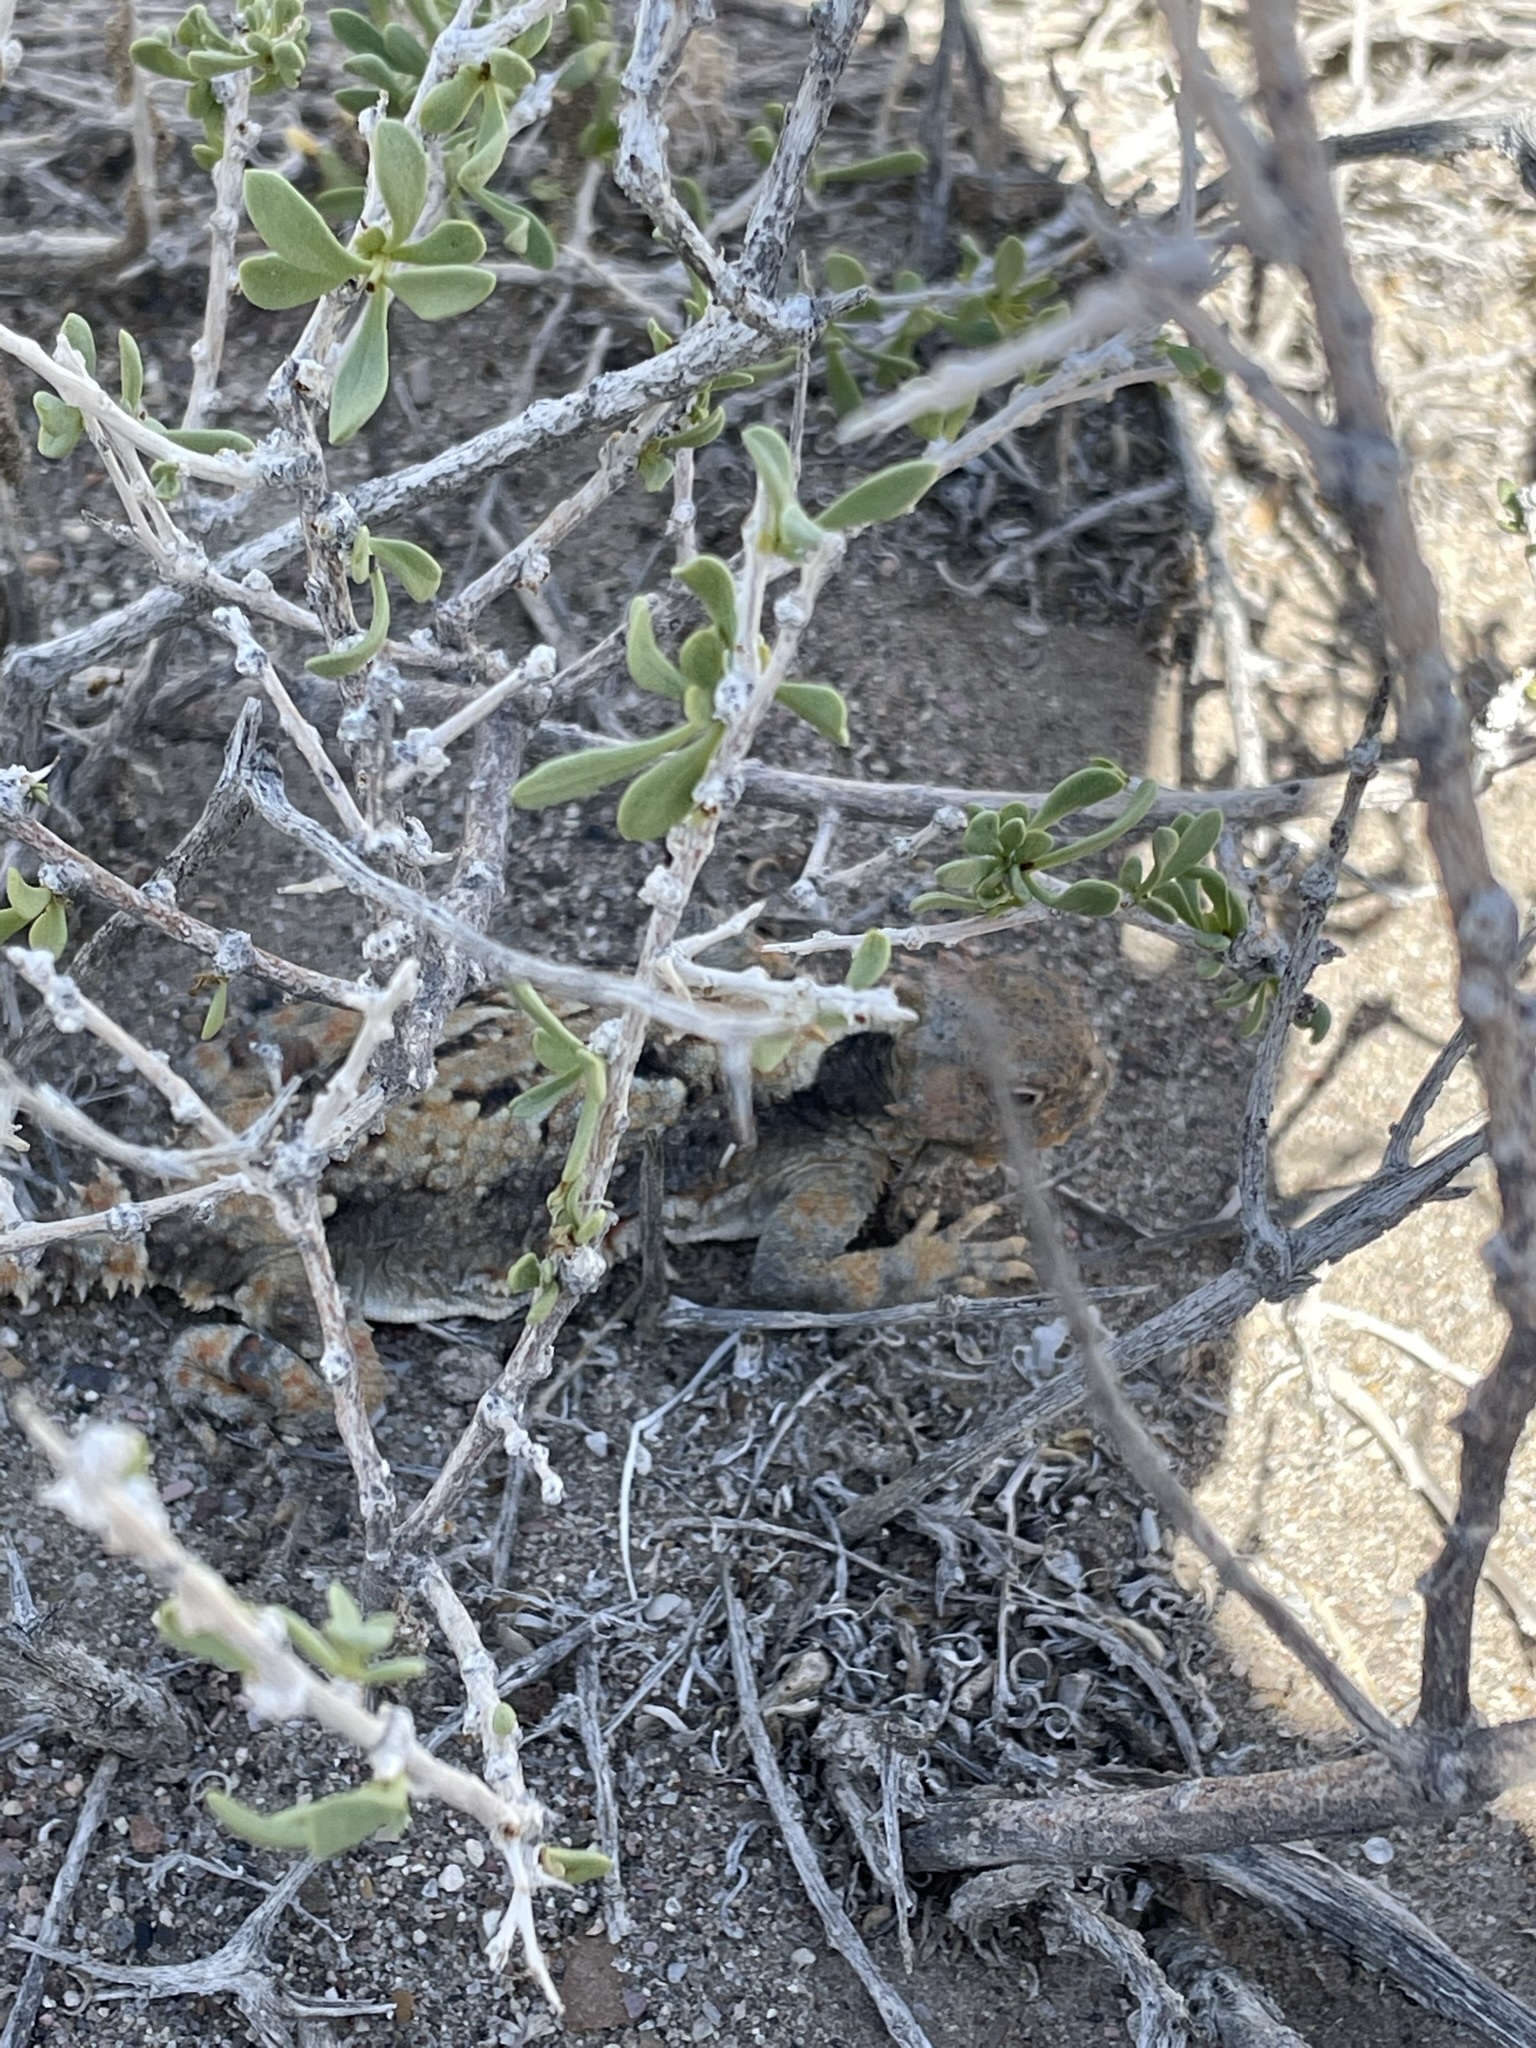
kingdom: Animalia
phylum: Chordata
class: Squamata
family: Phrynosomatidae
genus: Phrynosoma
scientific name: Phrynosoma platyrhinos
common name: Desert horned lizard
